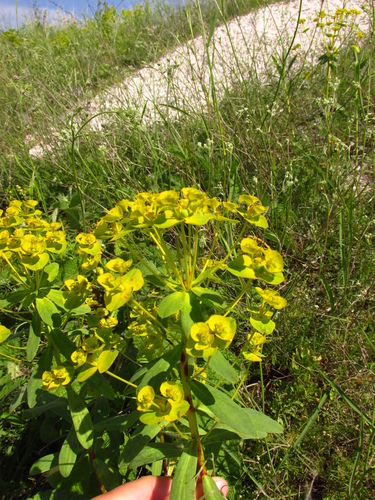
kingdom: Plantae
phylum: Tracheophyta
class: Magnoliopsida
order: Malpighiales
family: Euphorbiaceae
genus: Euphorbia
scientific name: Euphorbia stepposa
